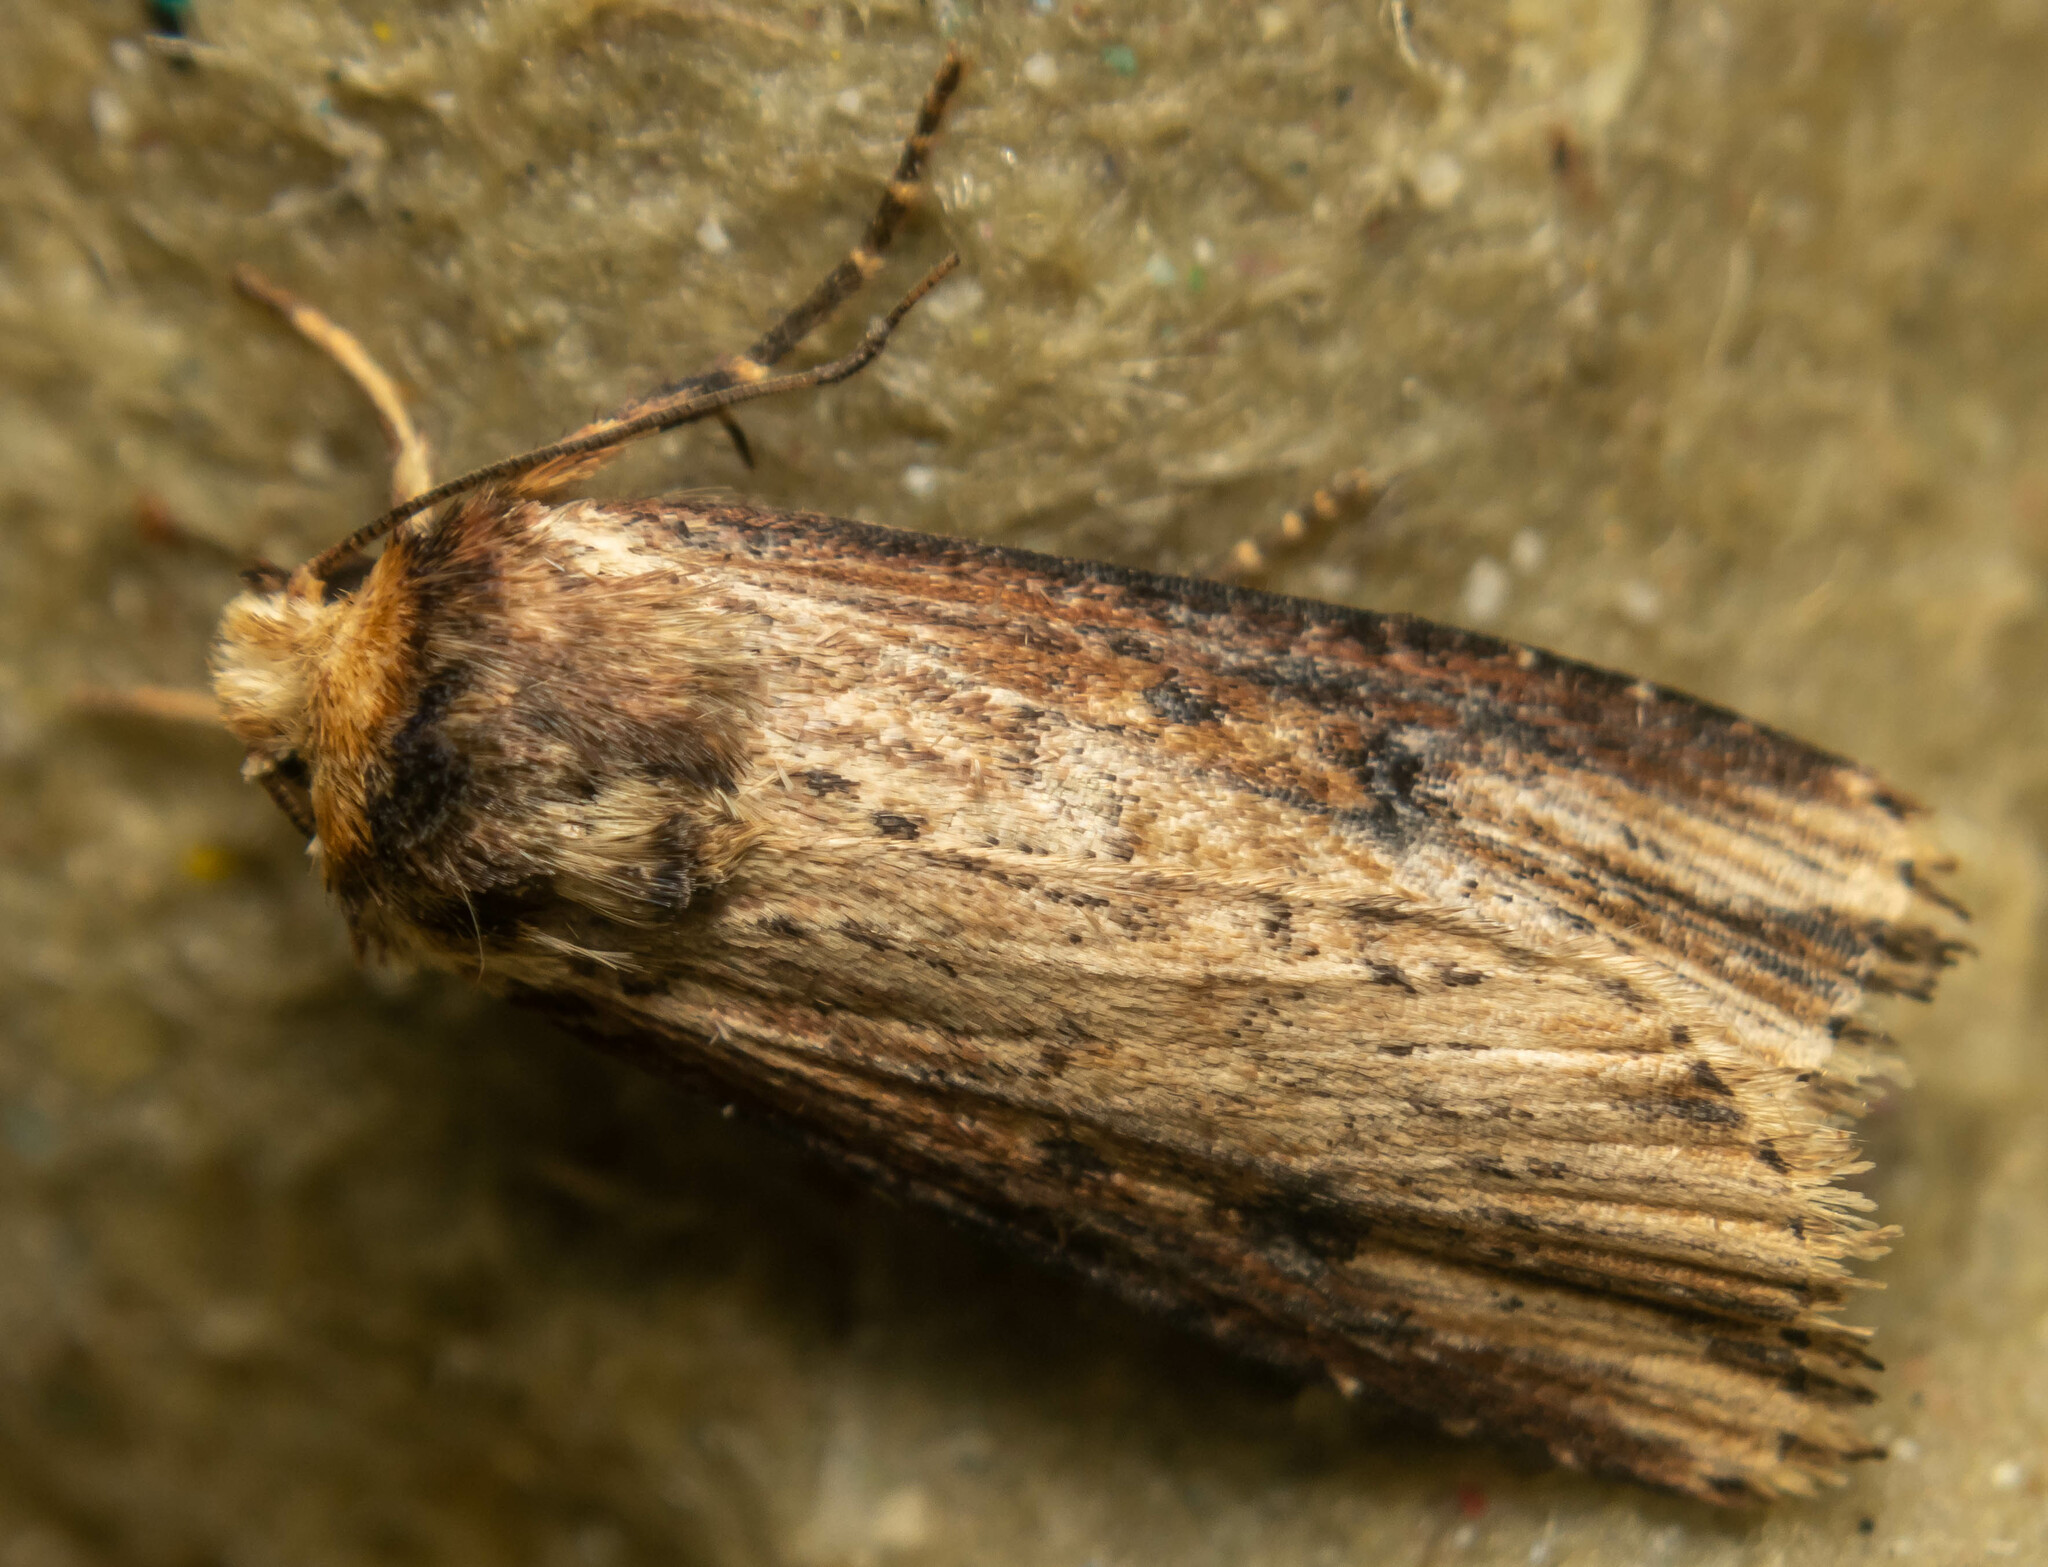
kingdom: Animalia
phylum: Arthropoda
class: Insecta
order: Lepidoptera
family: Noctuidae
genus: Axylia
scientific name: Axylia putris
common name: Flame
